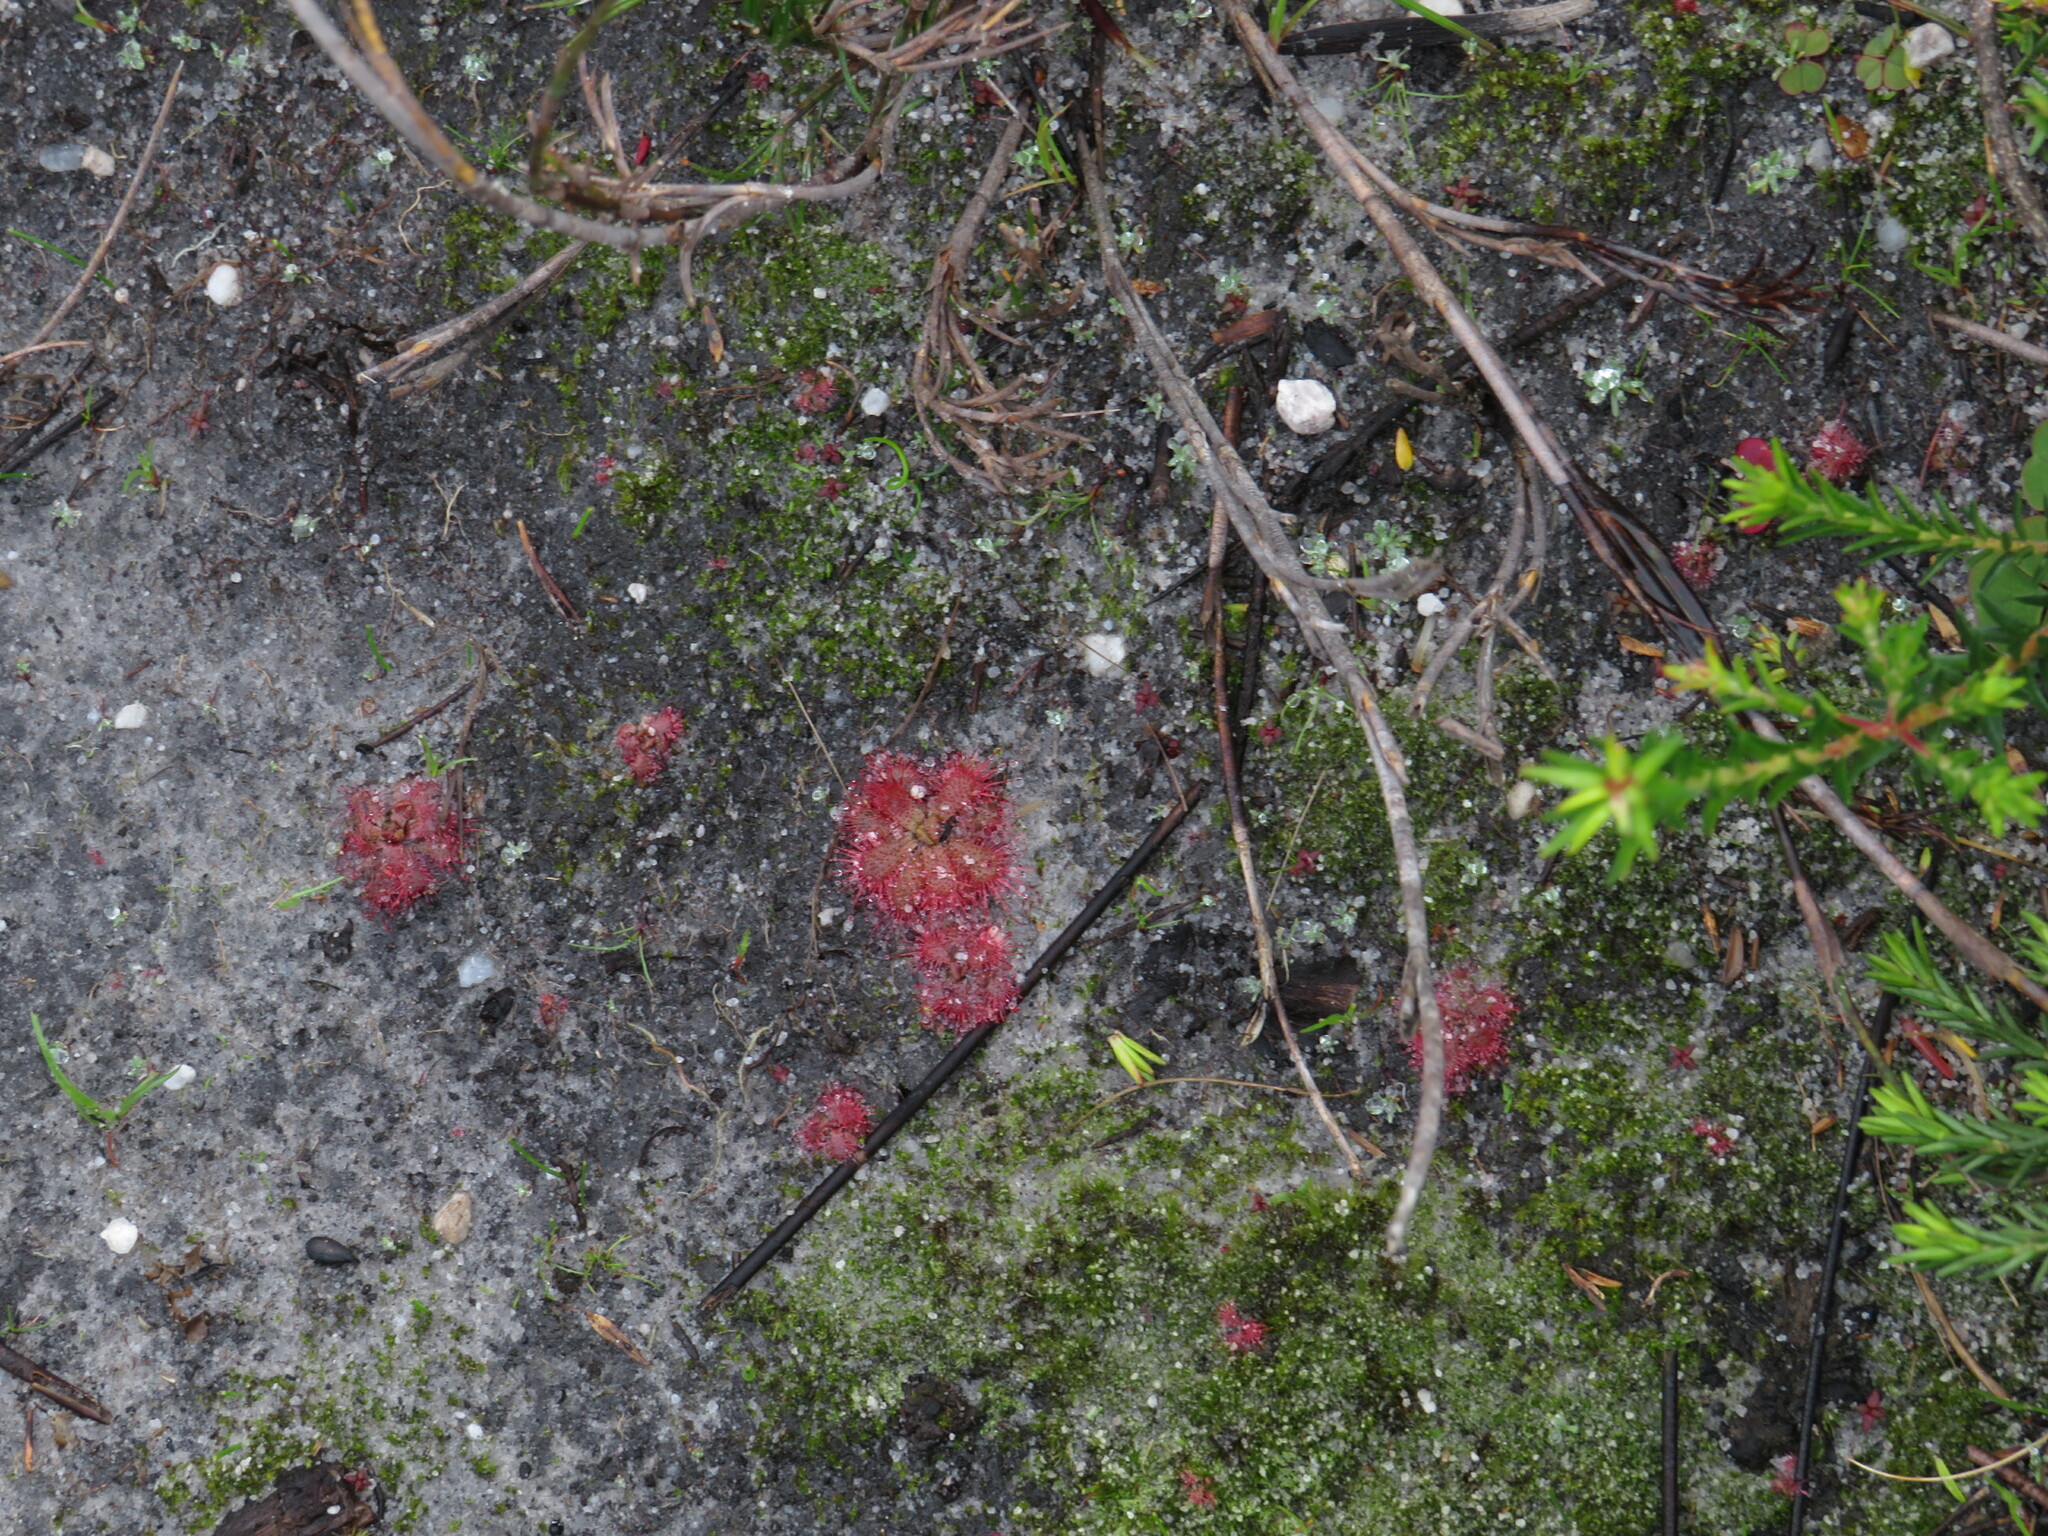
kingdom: Plantae
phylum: Tracheophyta
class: Magnoliopsida
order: Caryophyllales
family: Droseraceae
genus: Drosera
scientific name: Drosera trinervia
